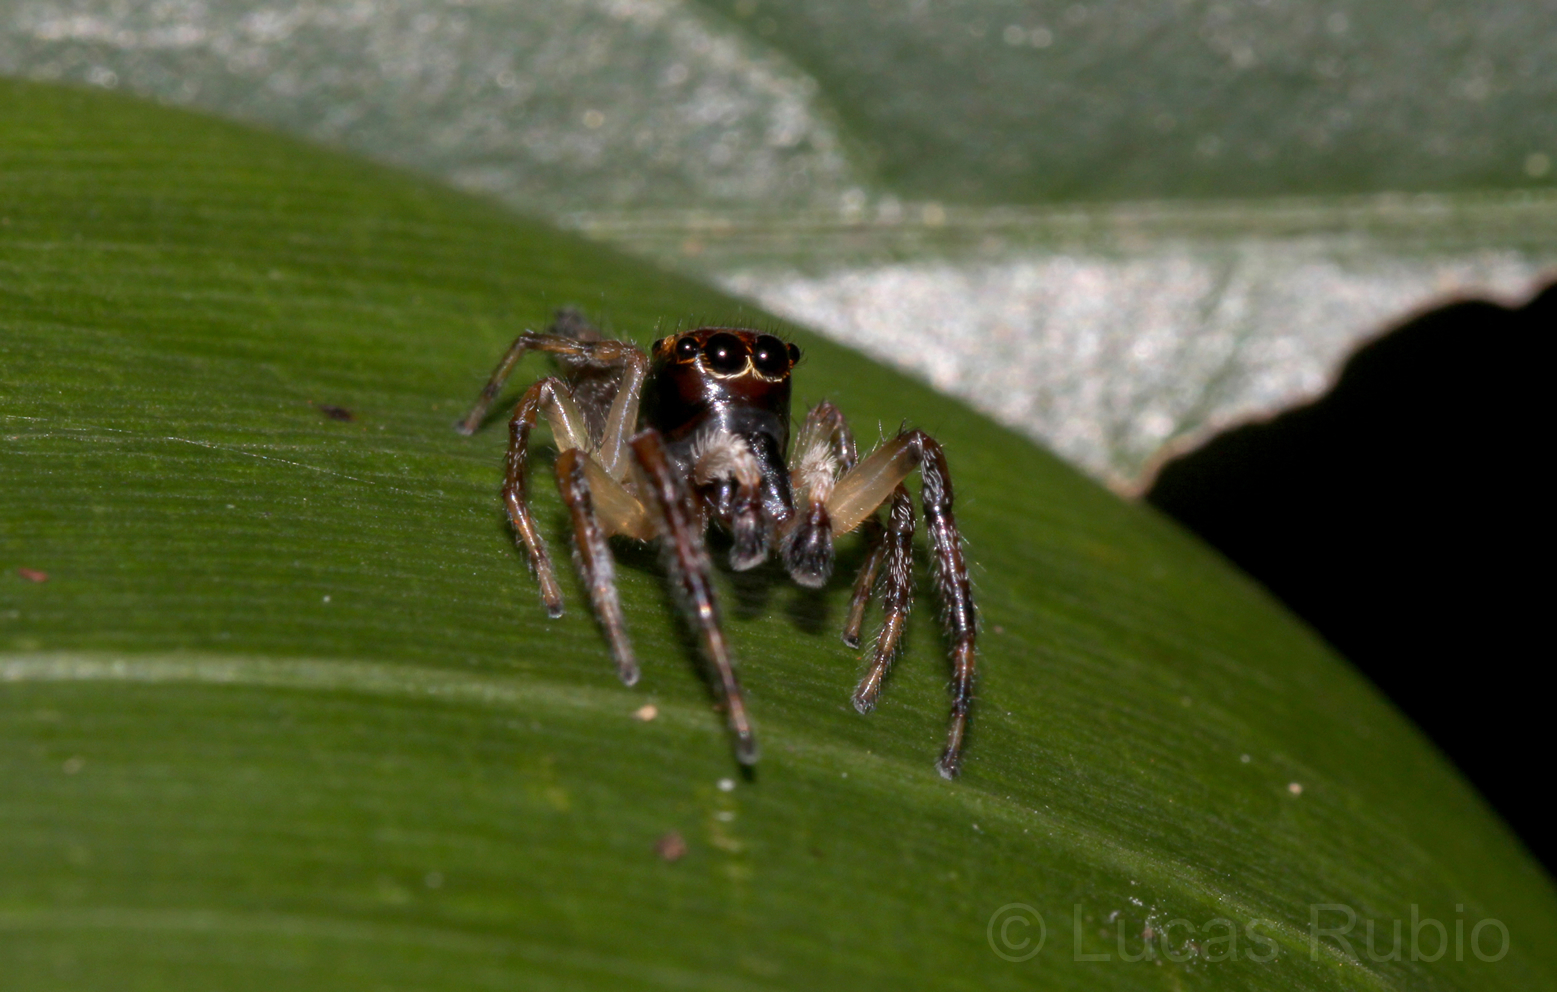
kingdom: Animalia
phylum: Arthropoda
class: Arachnida
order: Araneae
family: Salticidae
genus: Vinnius
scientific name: Vinnius uncatus
